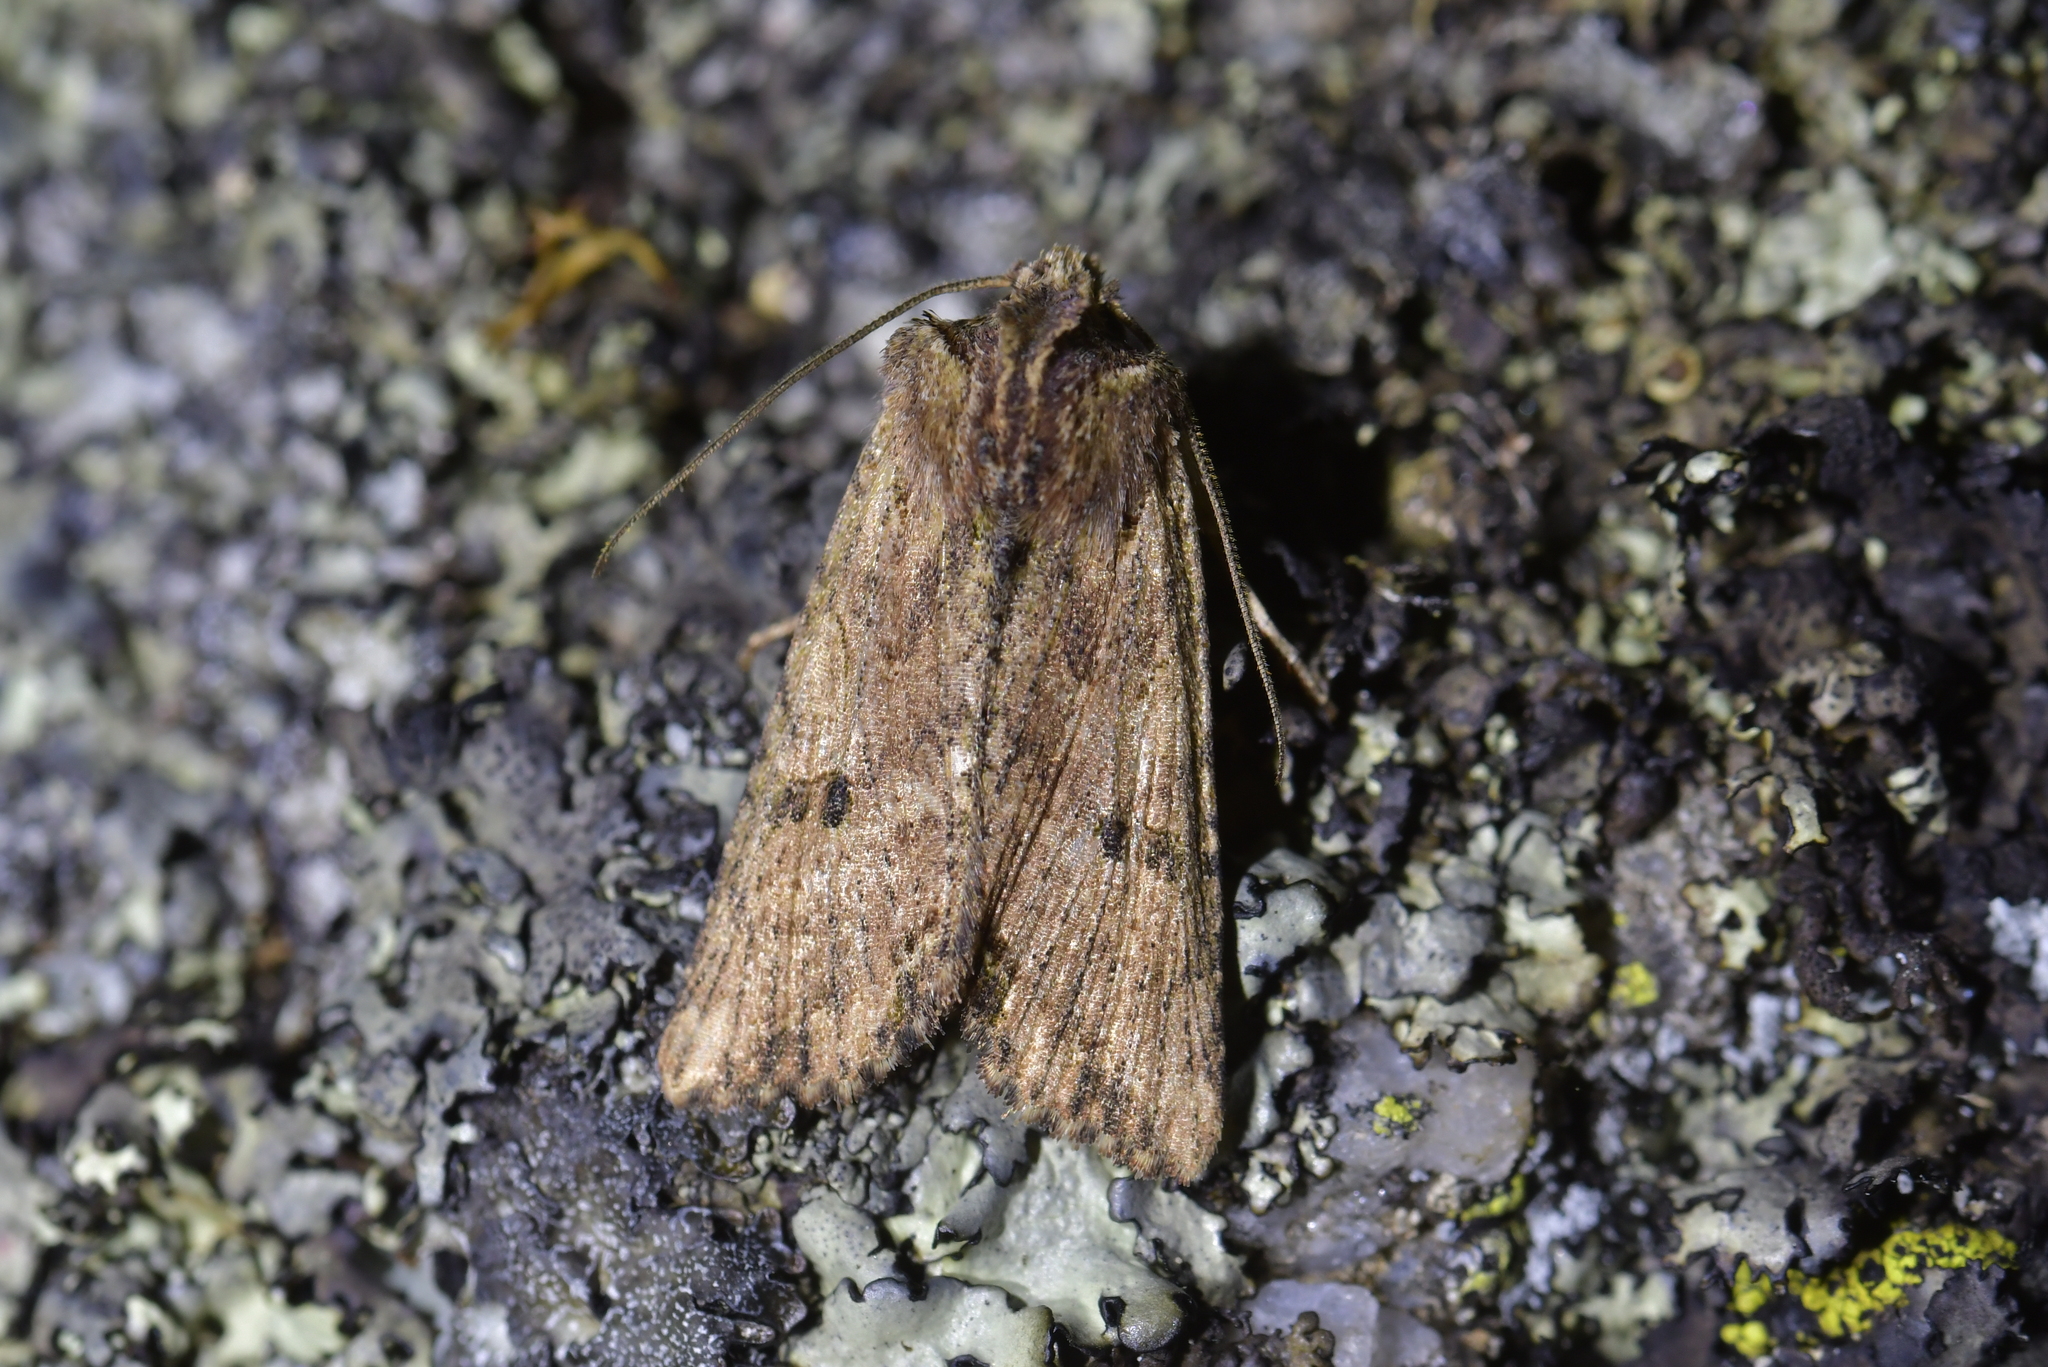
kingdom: Animalia
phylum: Arthropoda
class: Insecta
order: Lepidoptera
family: Noctuidae
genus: Meterana
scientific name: Meterana coeleno
